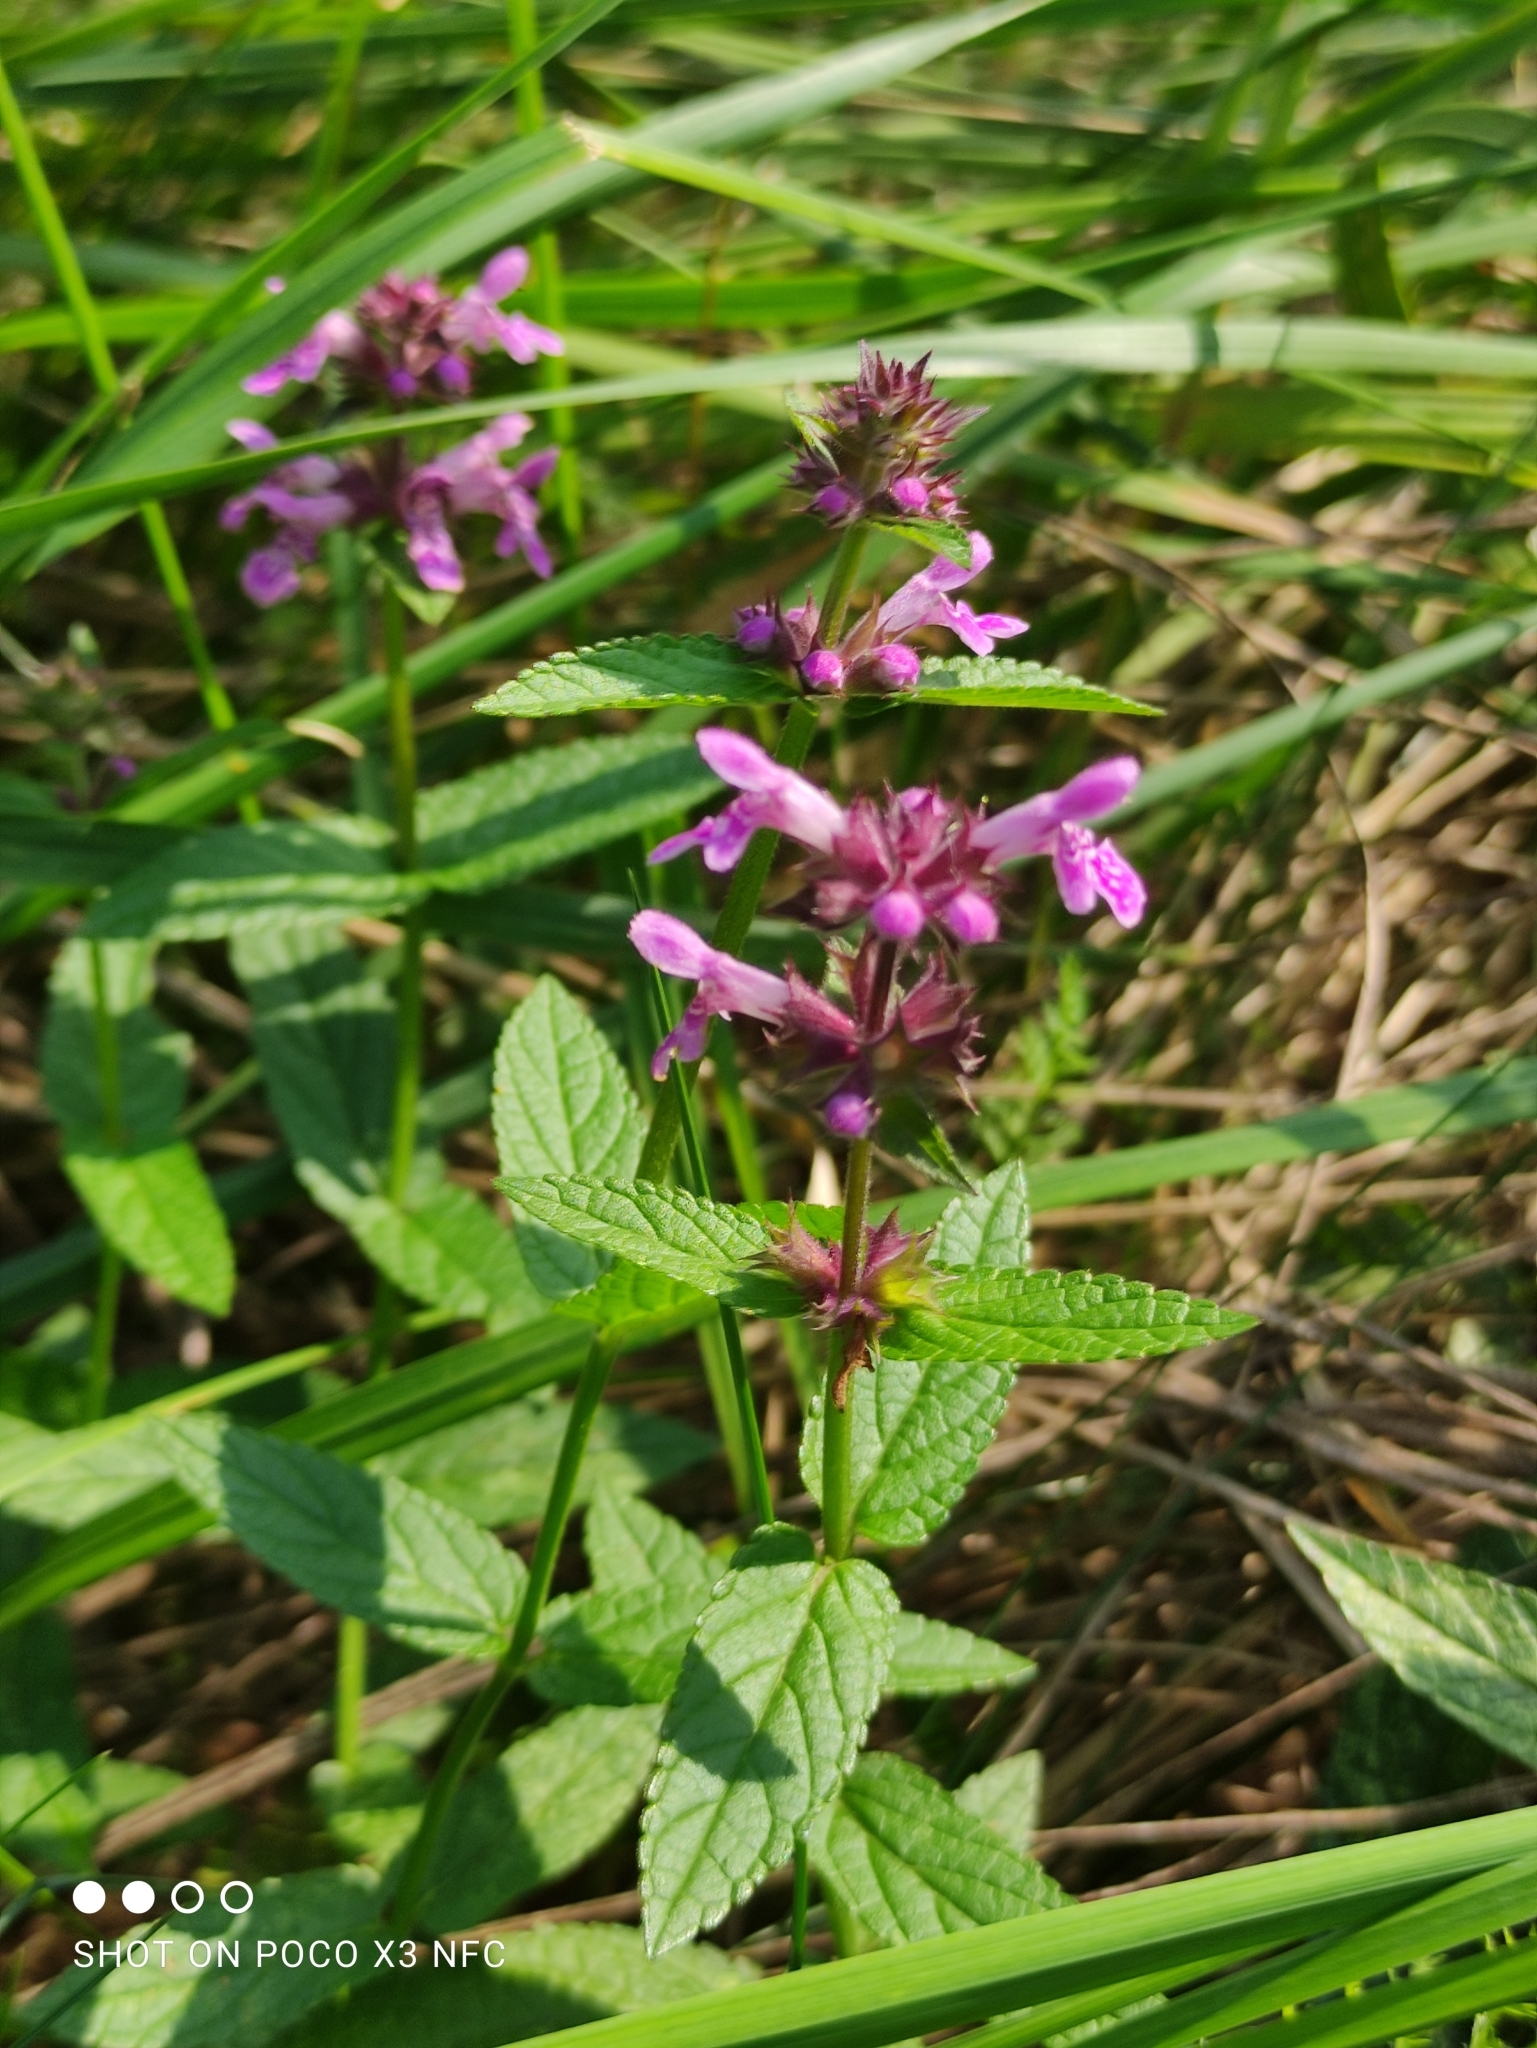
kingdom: Plantae
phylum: Tracheophyta
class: Magnoliopsida
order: Lamiales
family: Lamiaceae
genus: Stachys
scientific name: Stachys palustris
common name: Marsh woundwort
